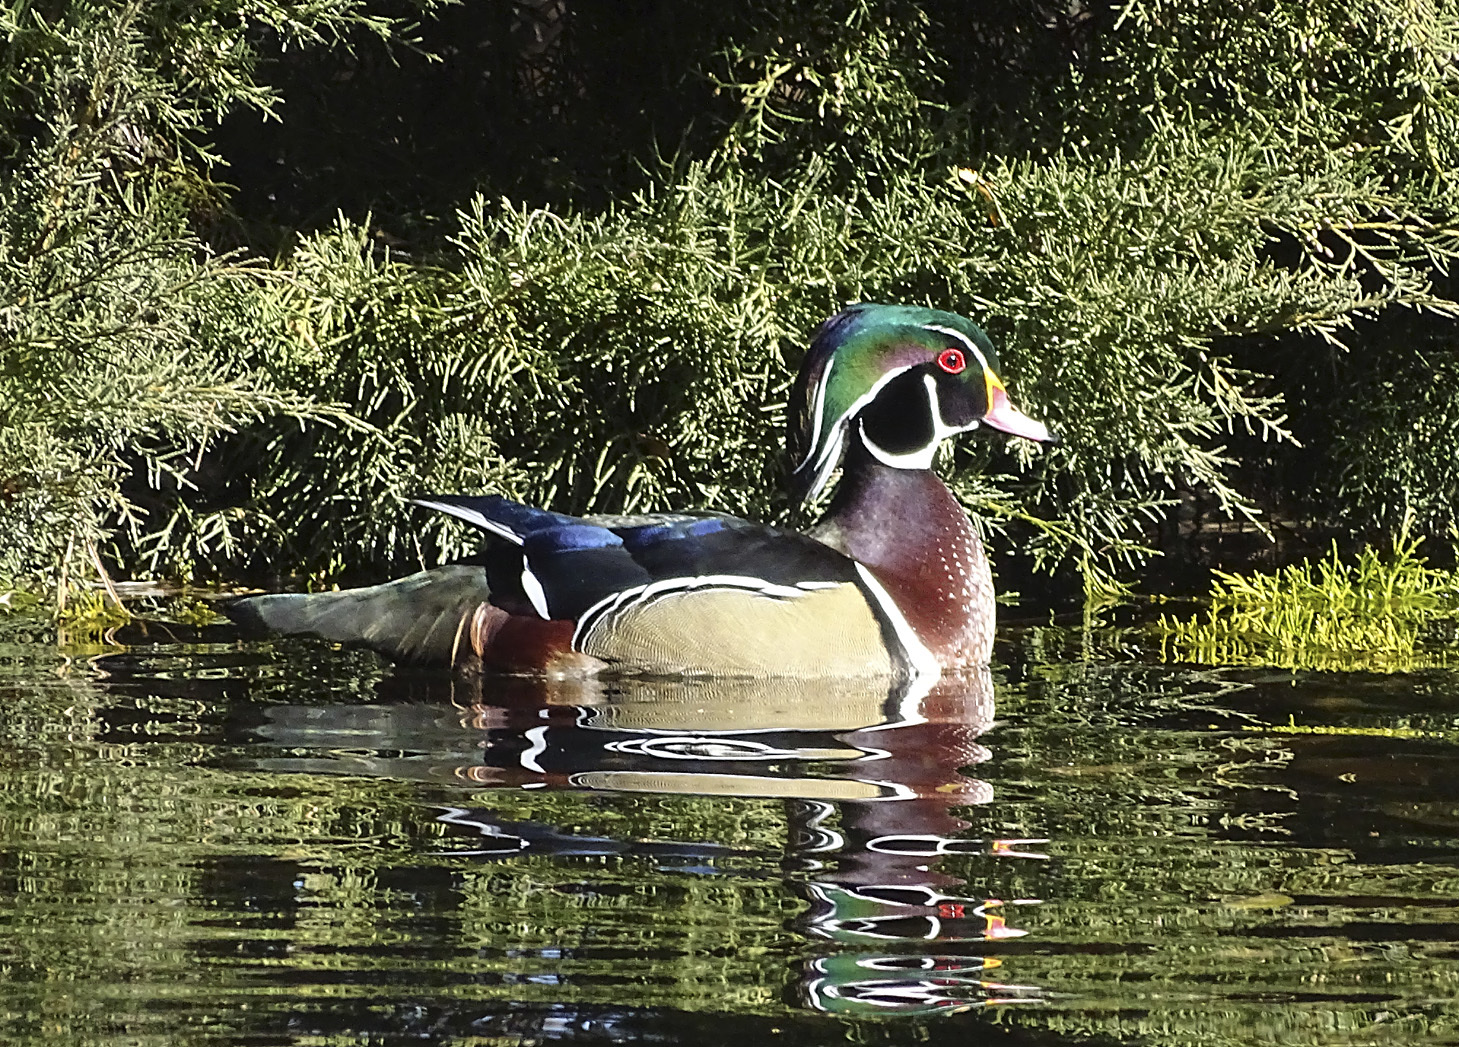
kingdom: Animalia
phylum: Chordata
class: Aves
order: Anseriformes
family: Anatidae
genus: Aix
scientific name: Aix sponsa
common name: Wood duck
